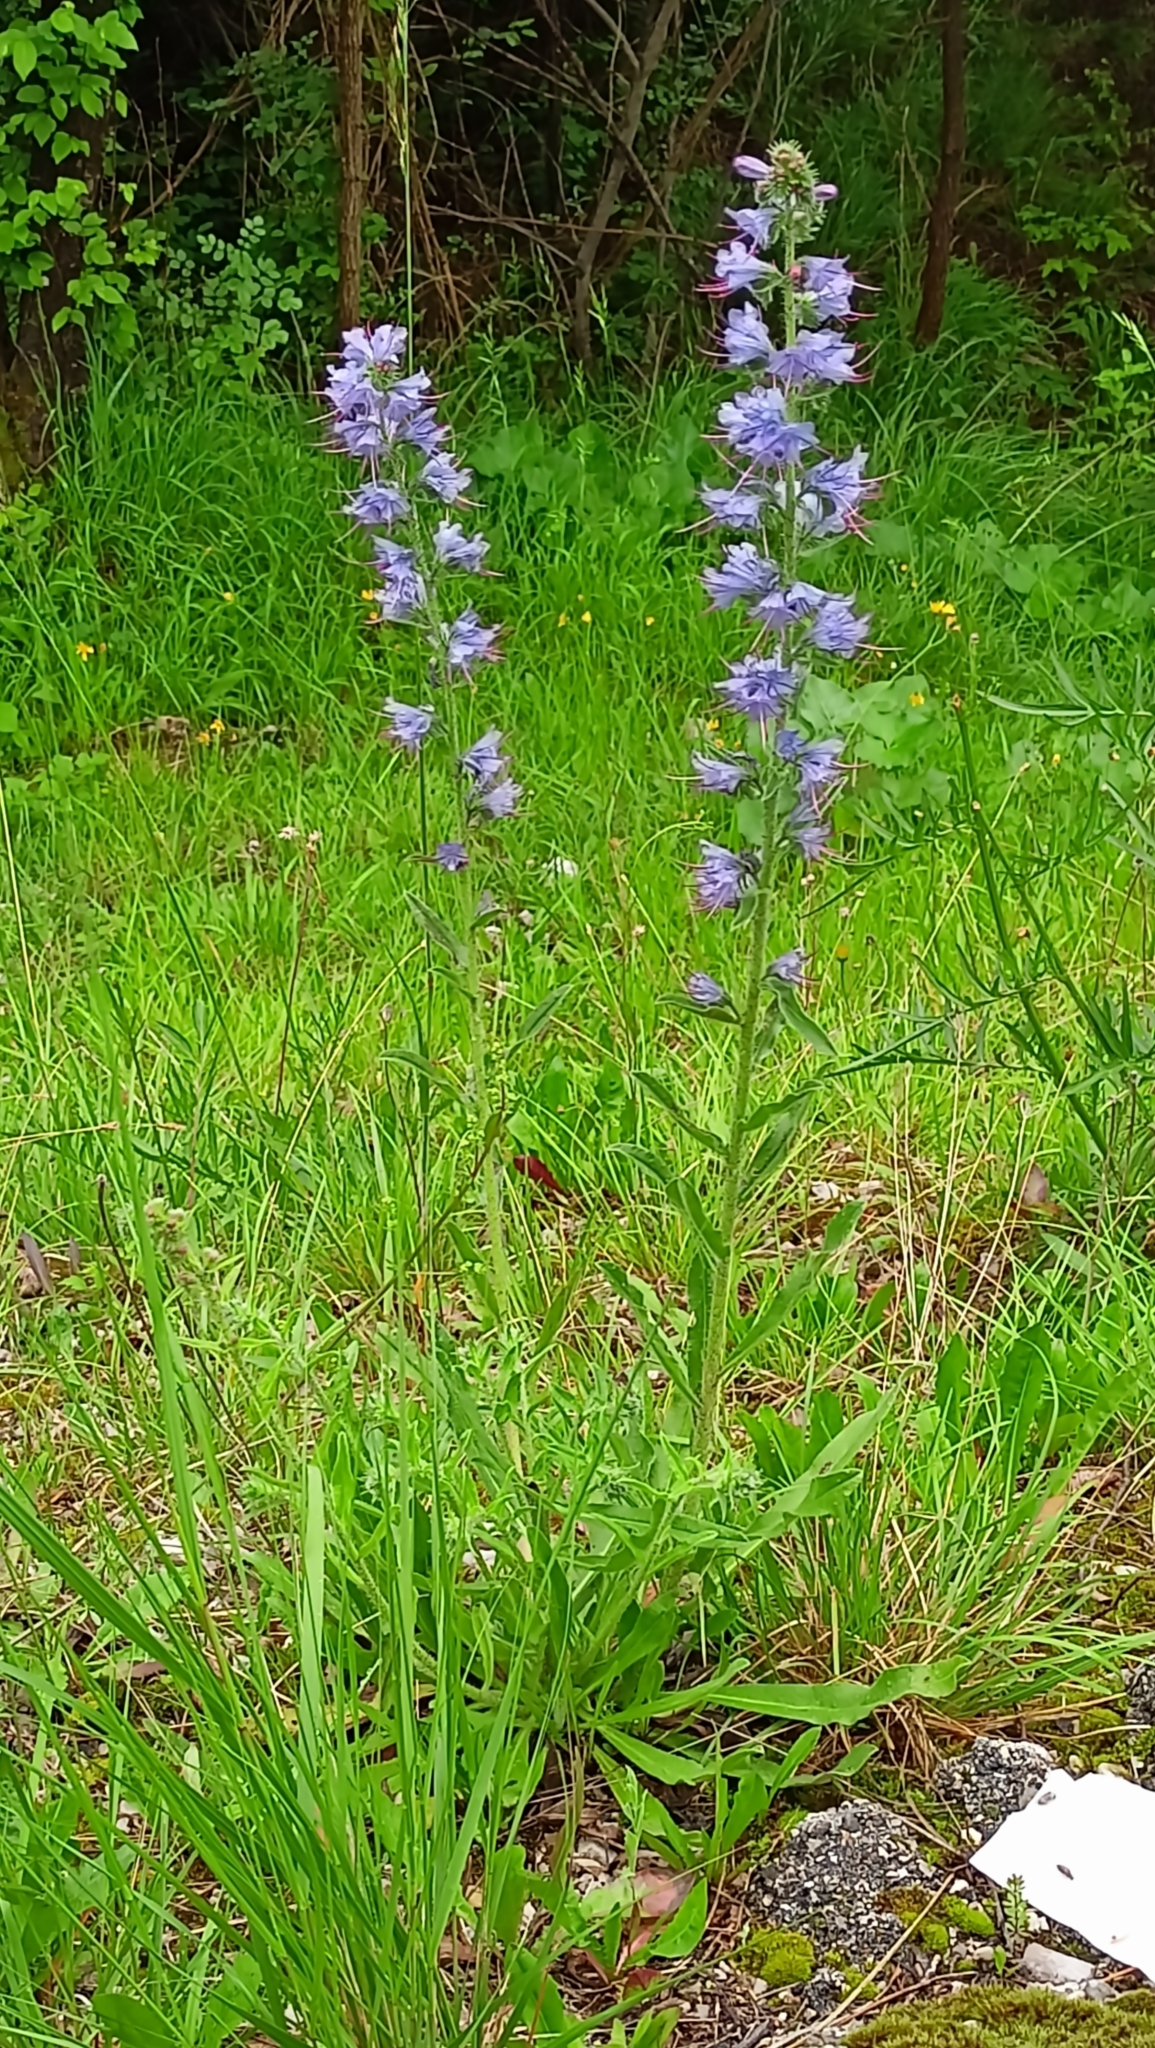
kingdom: Plantae
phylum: Tracheophyta
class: Magnoliopsida
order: Boraginales
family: Boraginaceae
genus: Echium
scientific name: Echium vulgare
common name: Common viper's bugloss
